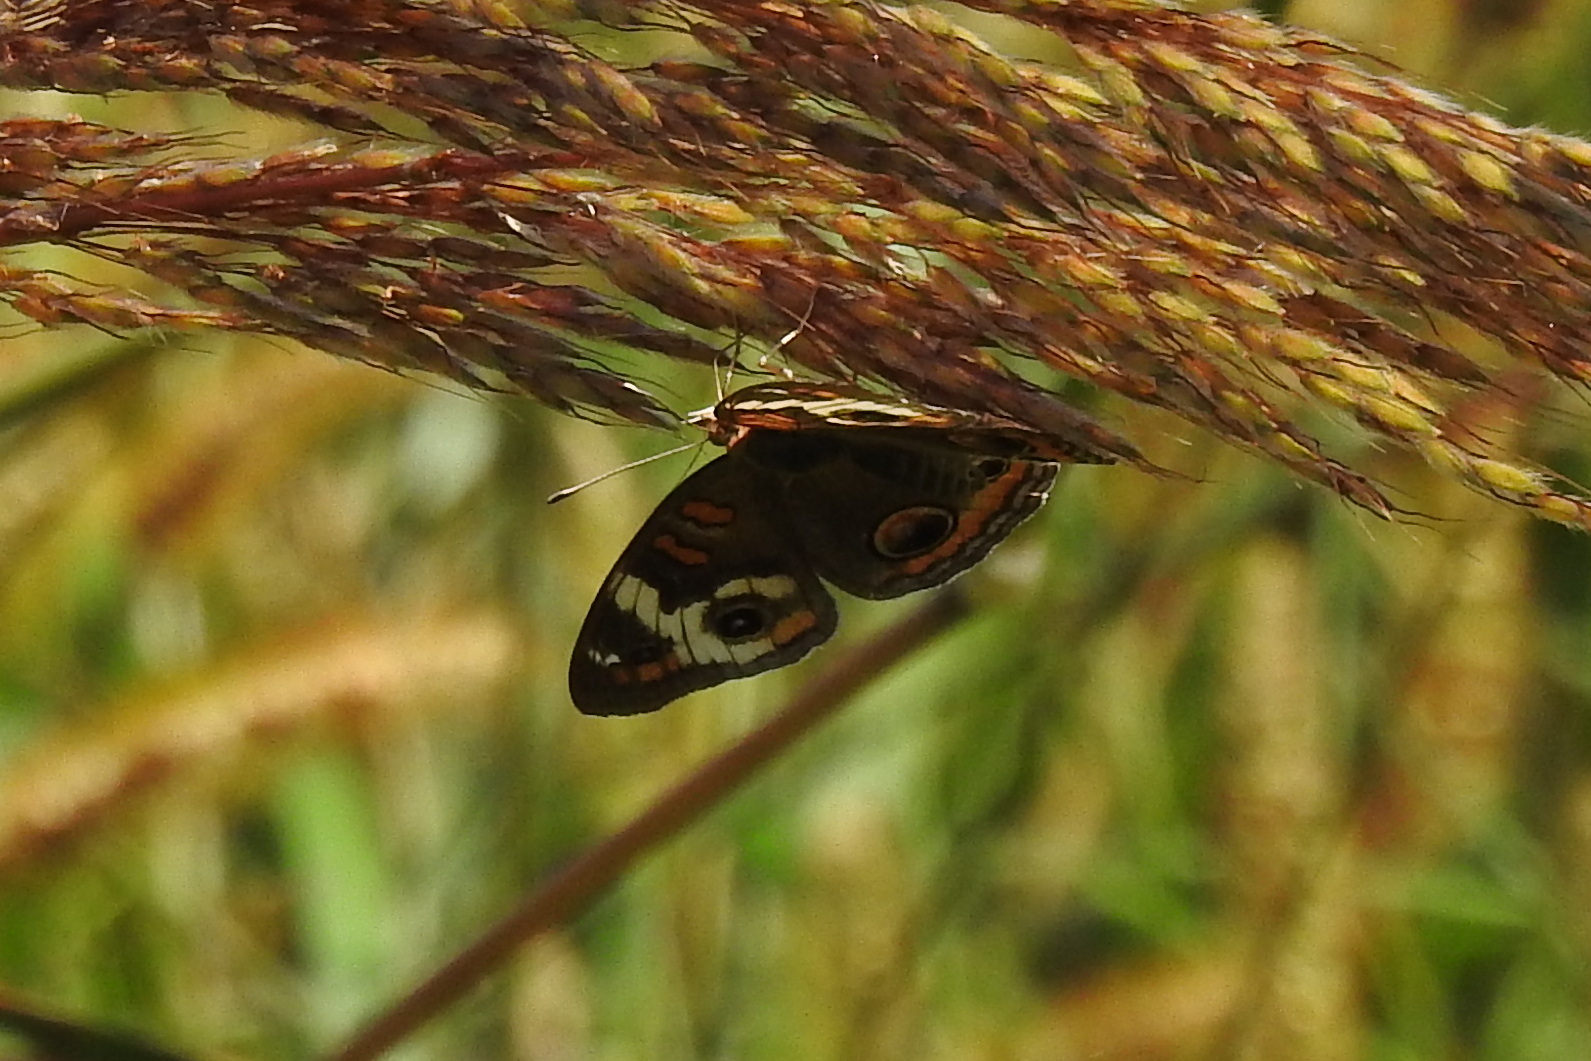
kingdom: Animalia
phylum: Arthropoda
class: Insecta
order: Lepidoptera
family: Nymphalidae
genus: Junonia
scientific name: Junonia coenia
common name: Common buckeye
